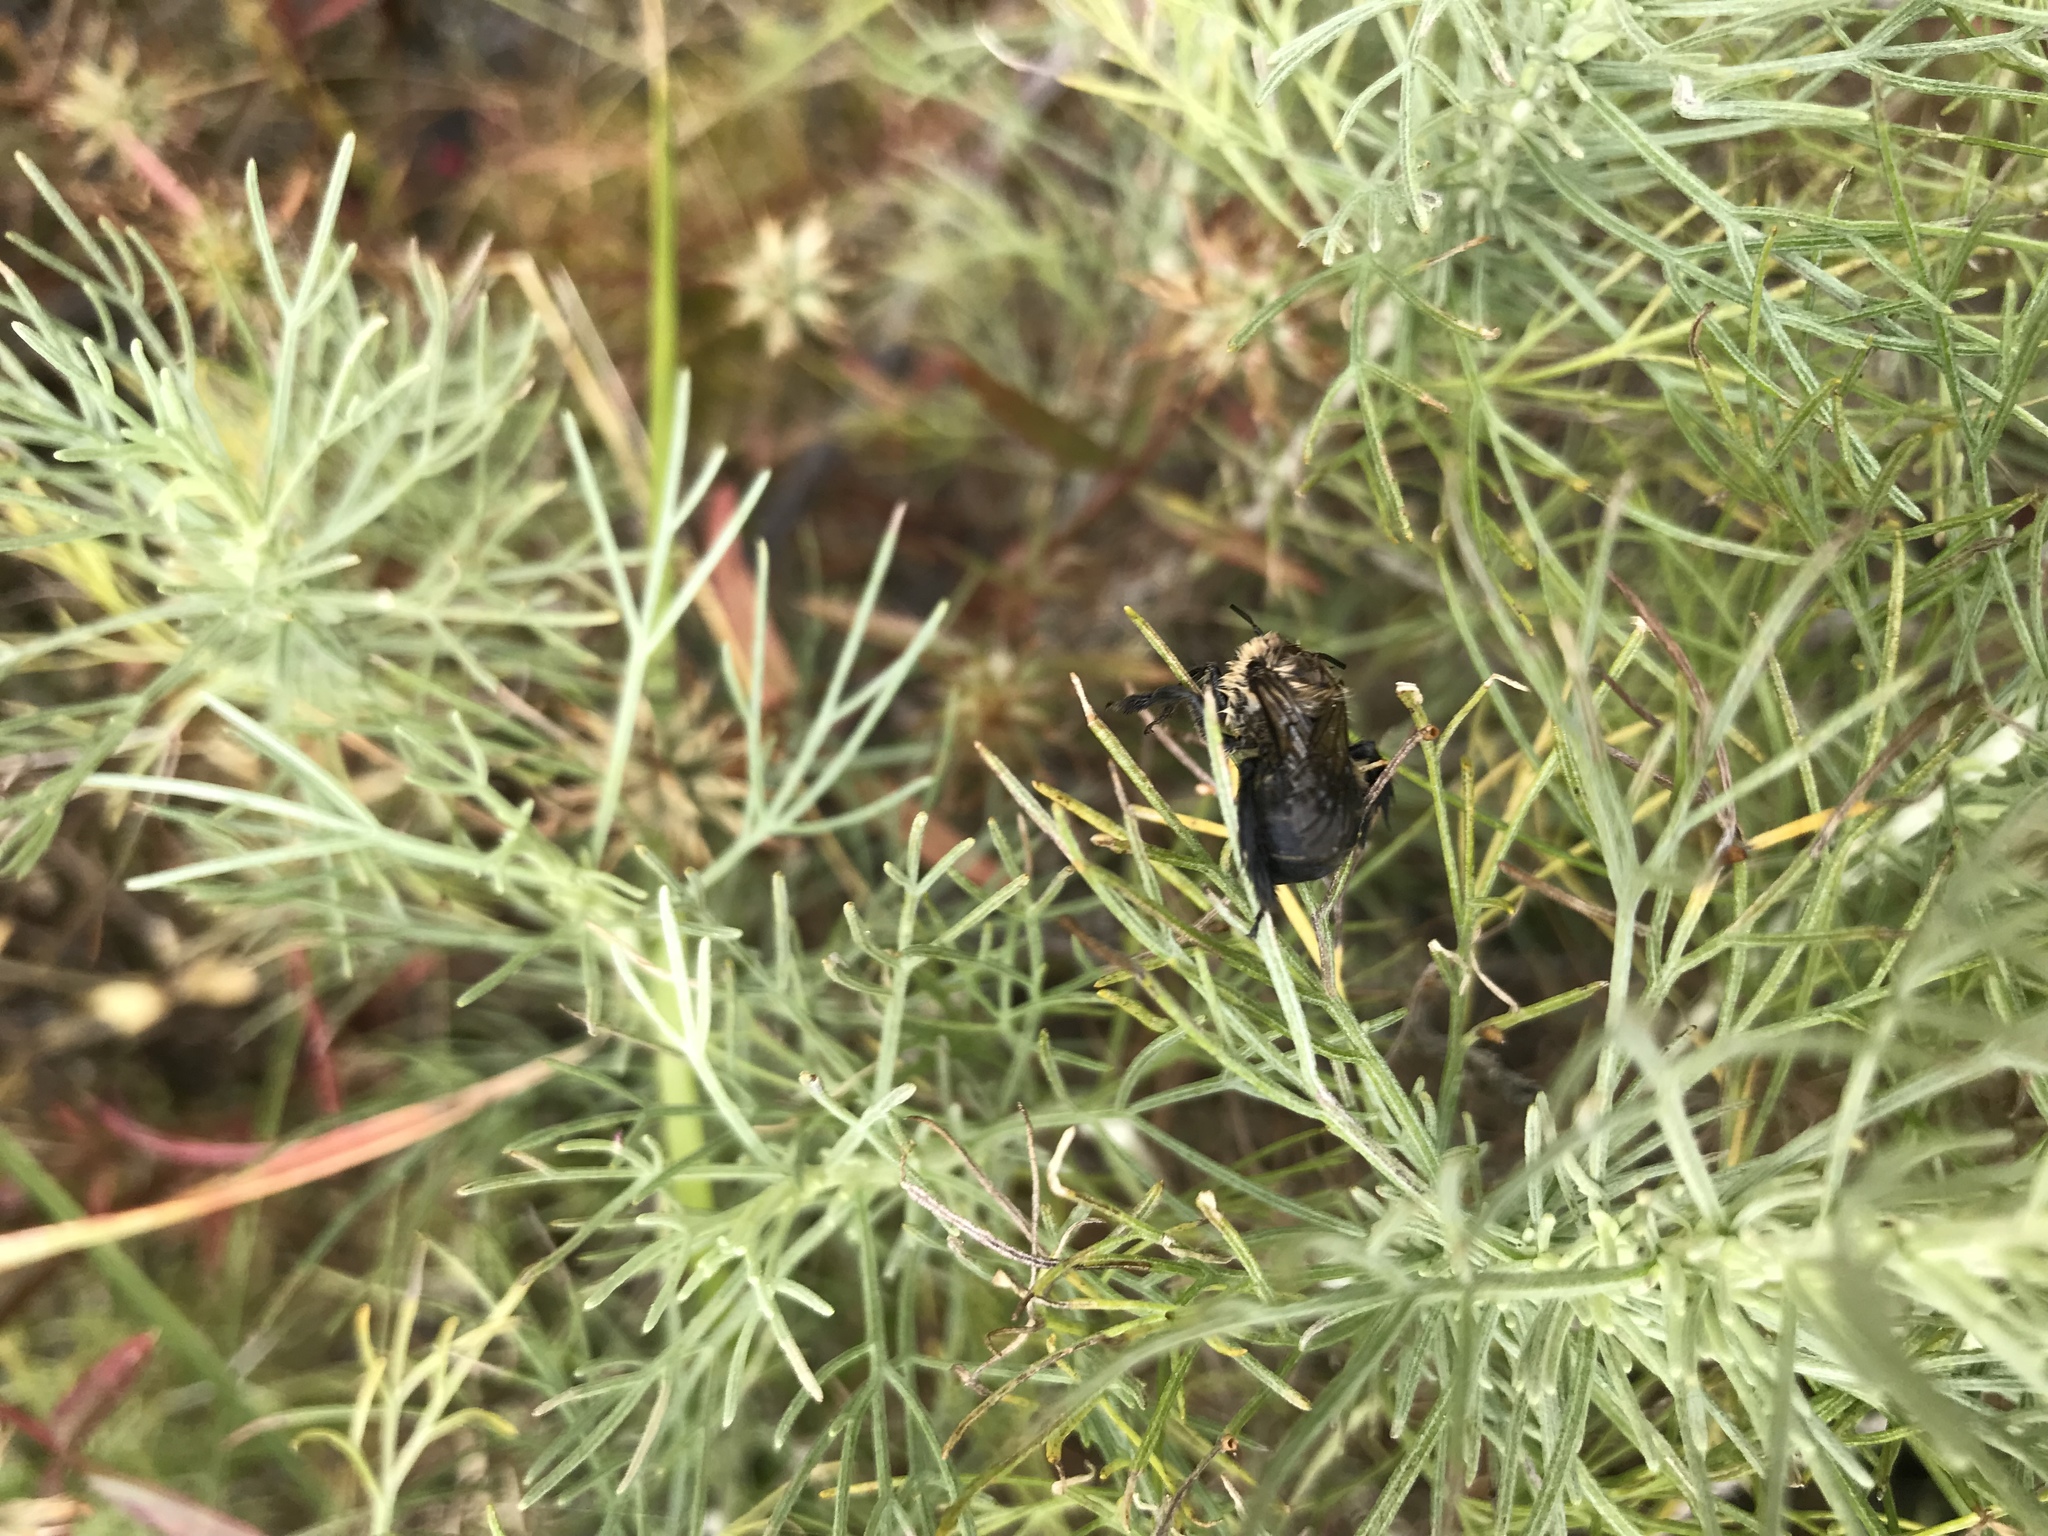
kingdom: Animalia
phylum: Arthropoda
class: Insecta
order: Hymenoptera
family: Apidae
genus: Diadasia
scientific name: Diadasia bituberculata
